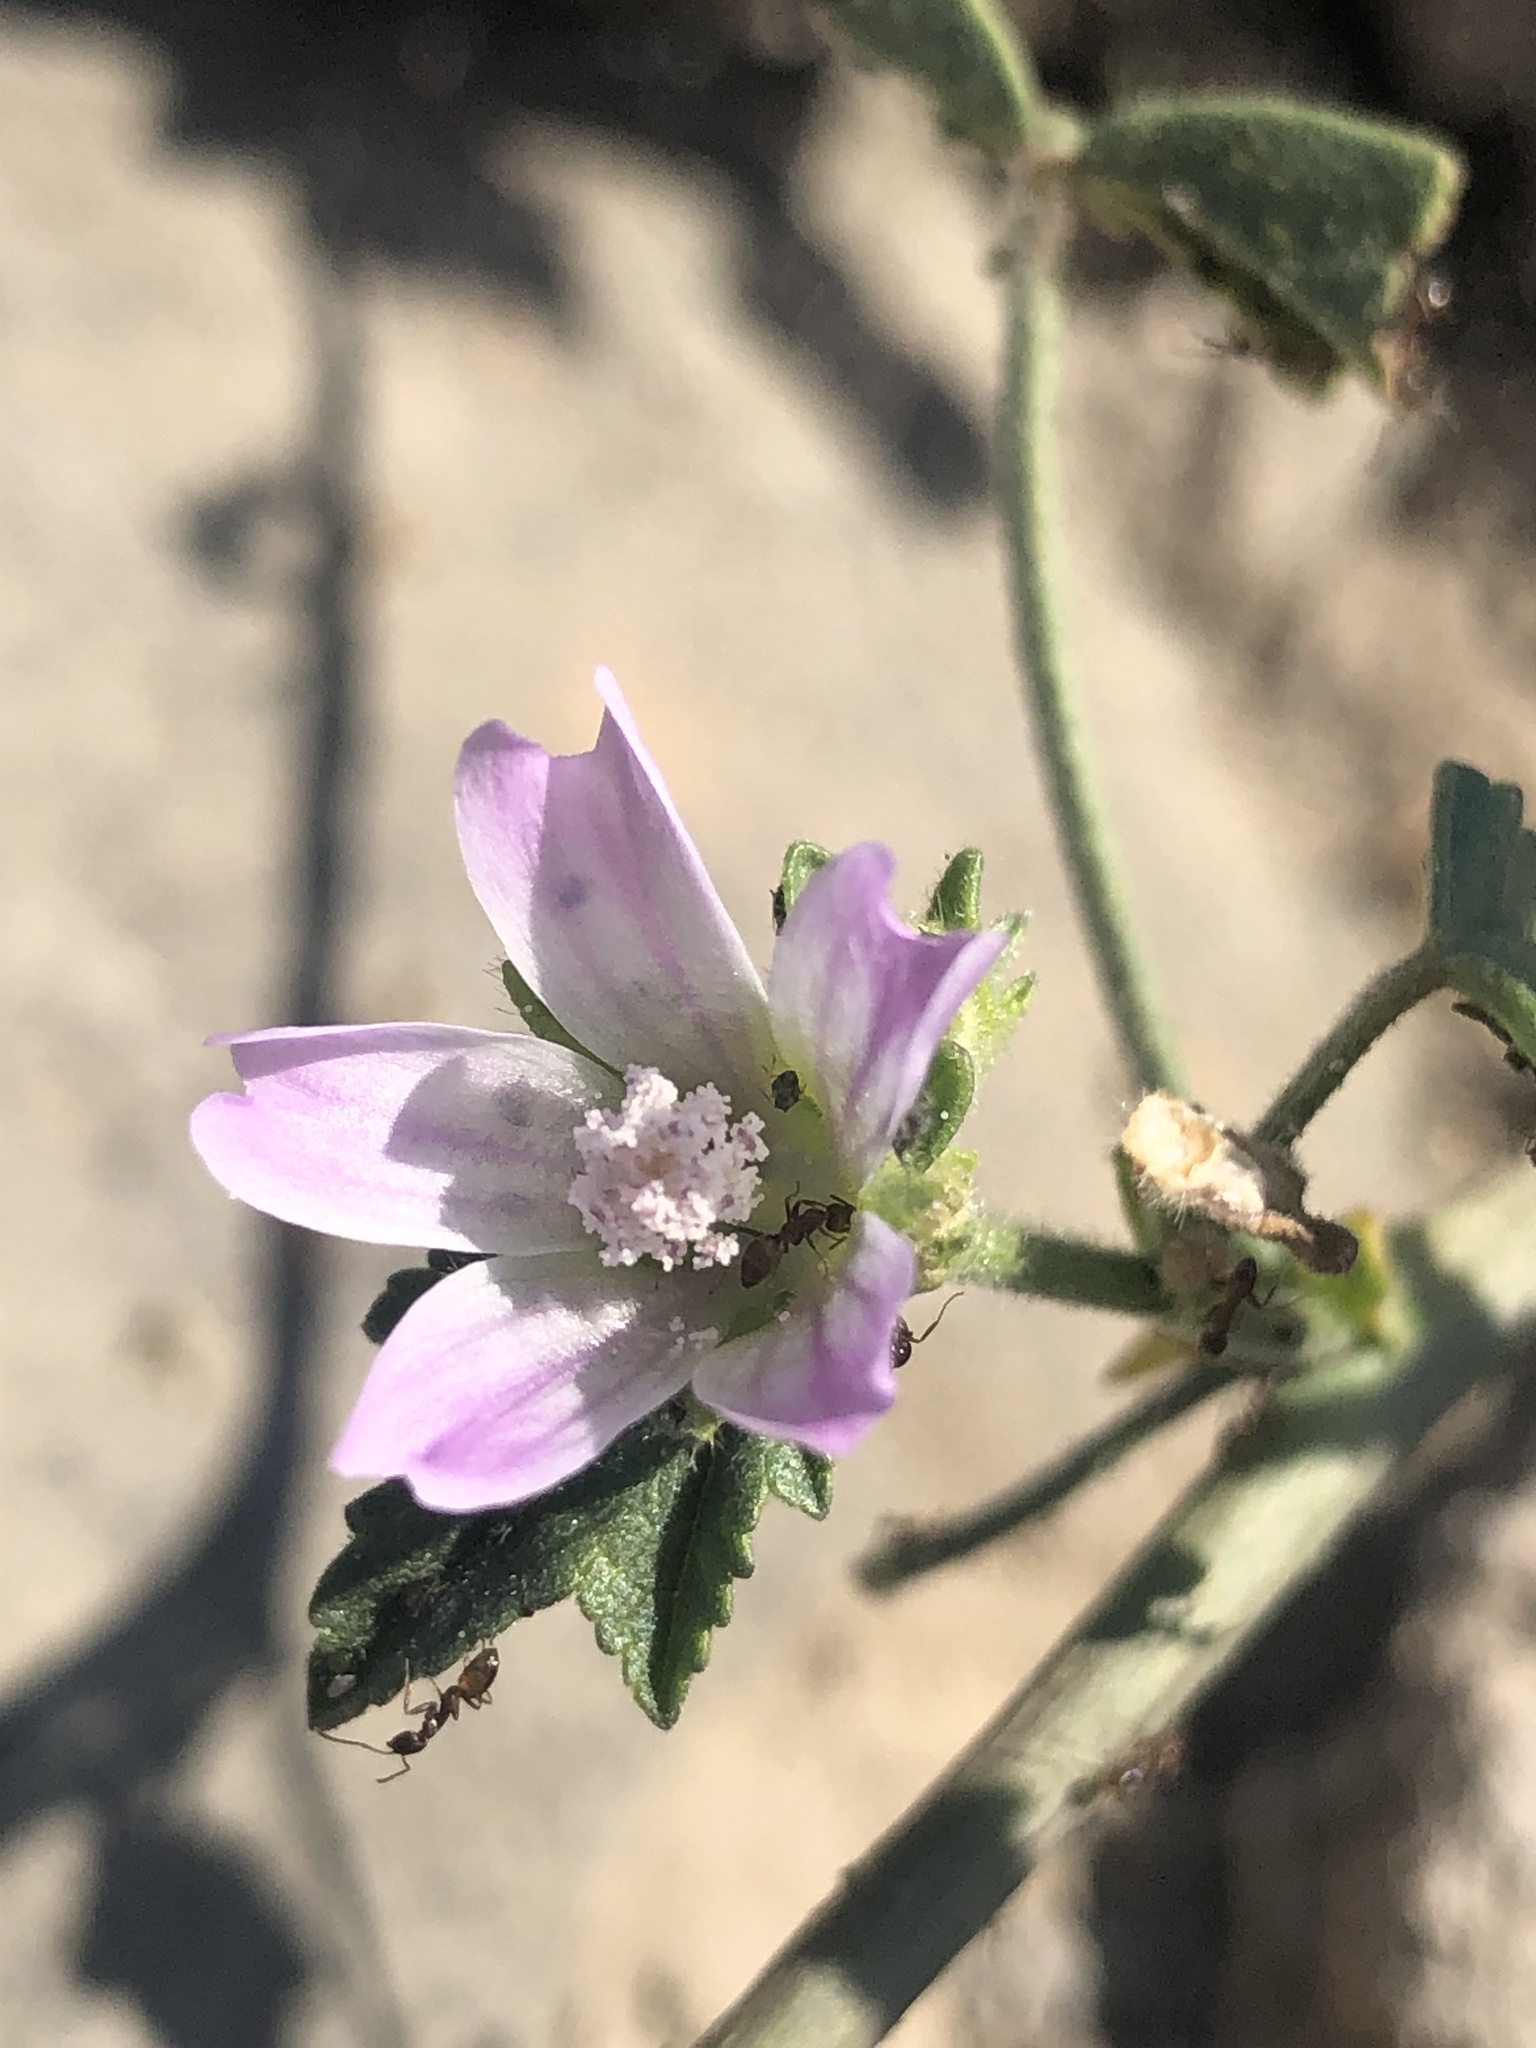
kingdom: Plantae
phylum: Tracheophyta
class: Magnoliopsida
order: Malvales
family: Malvaceae
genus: Malva
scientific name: Malva multiflora
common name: Cheeseweed
